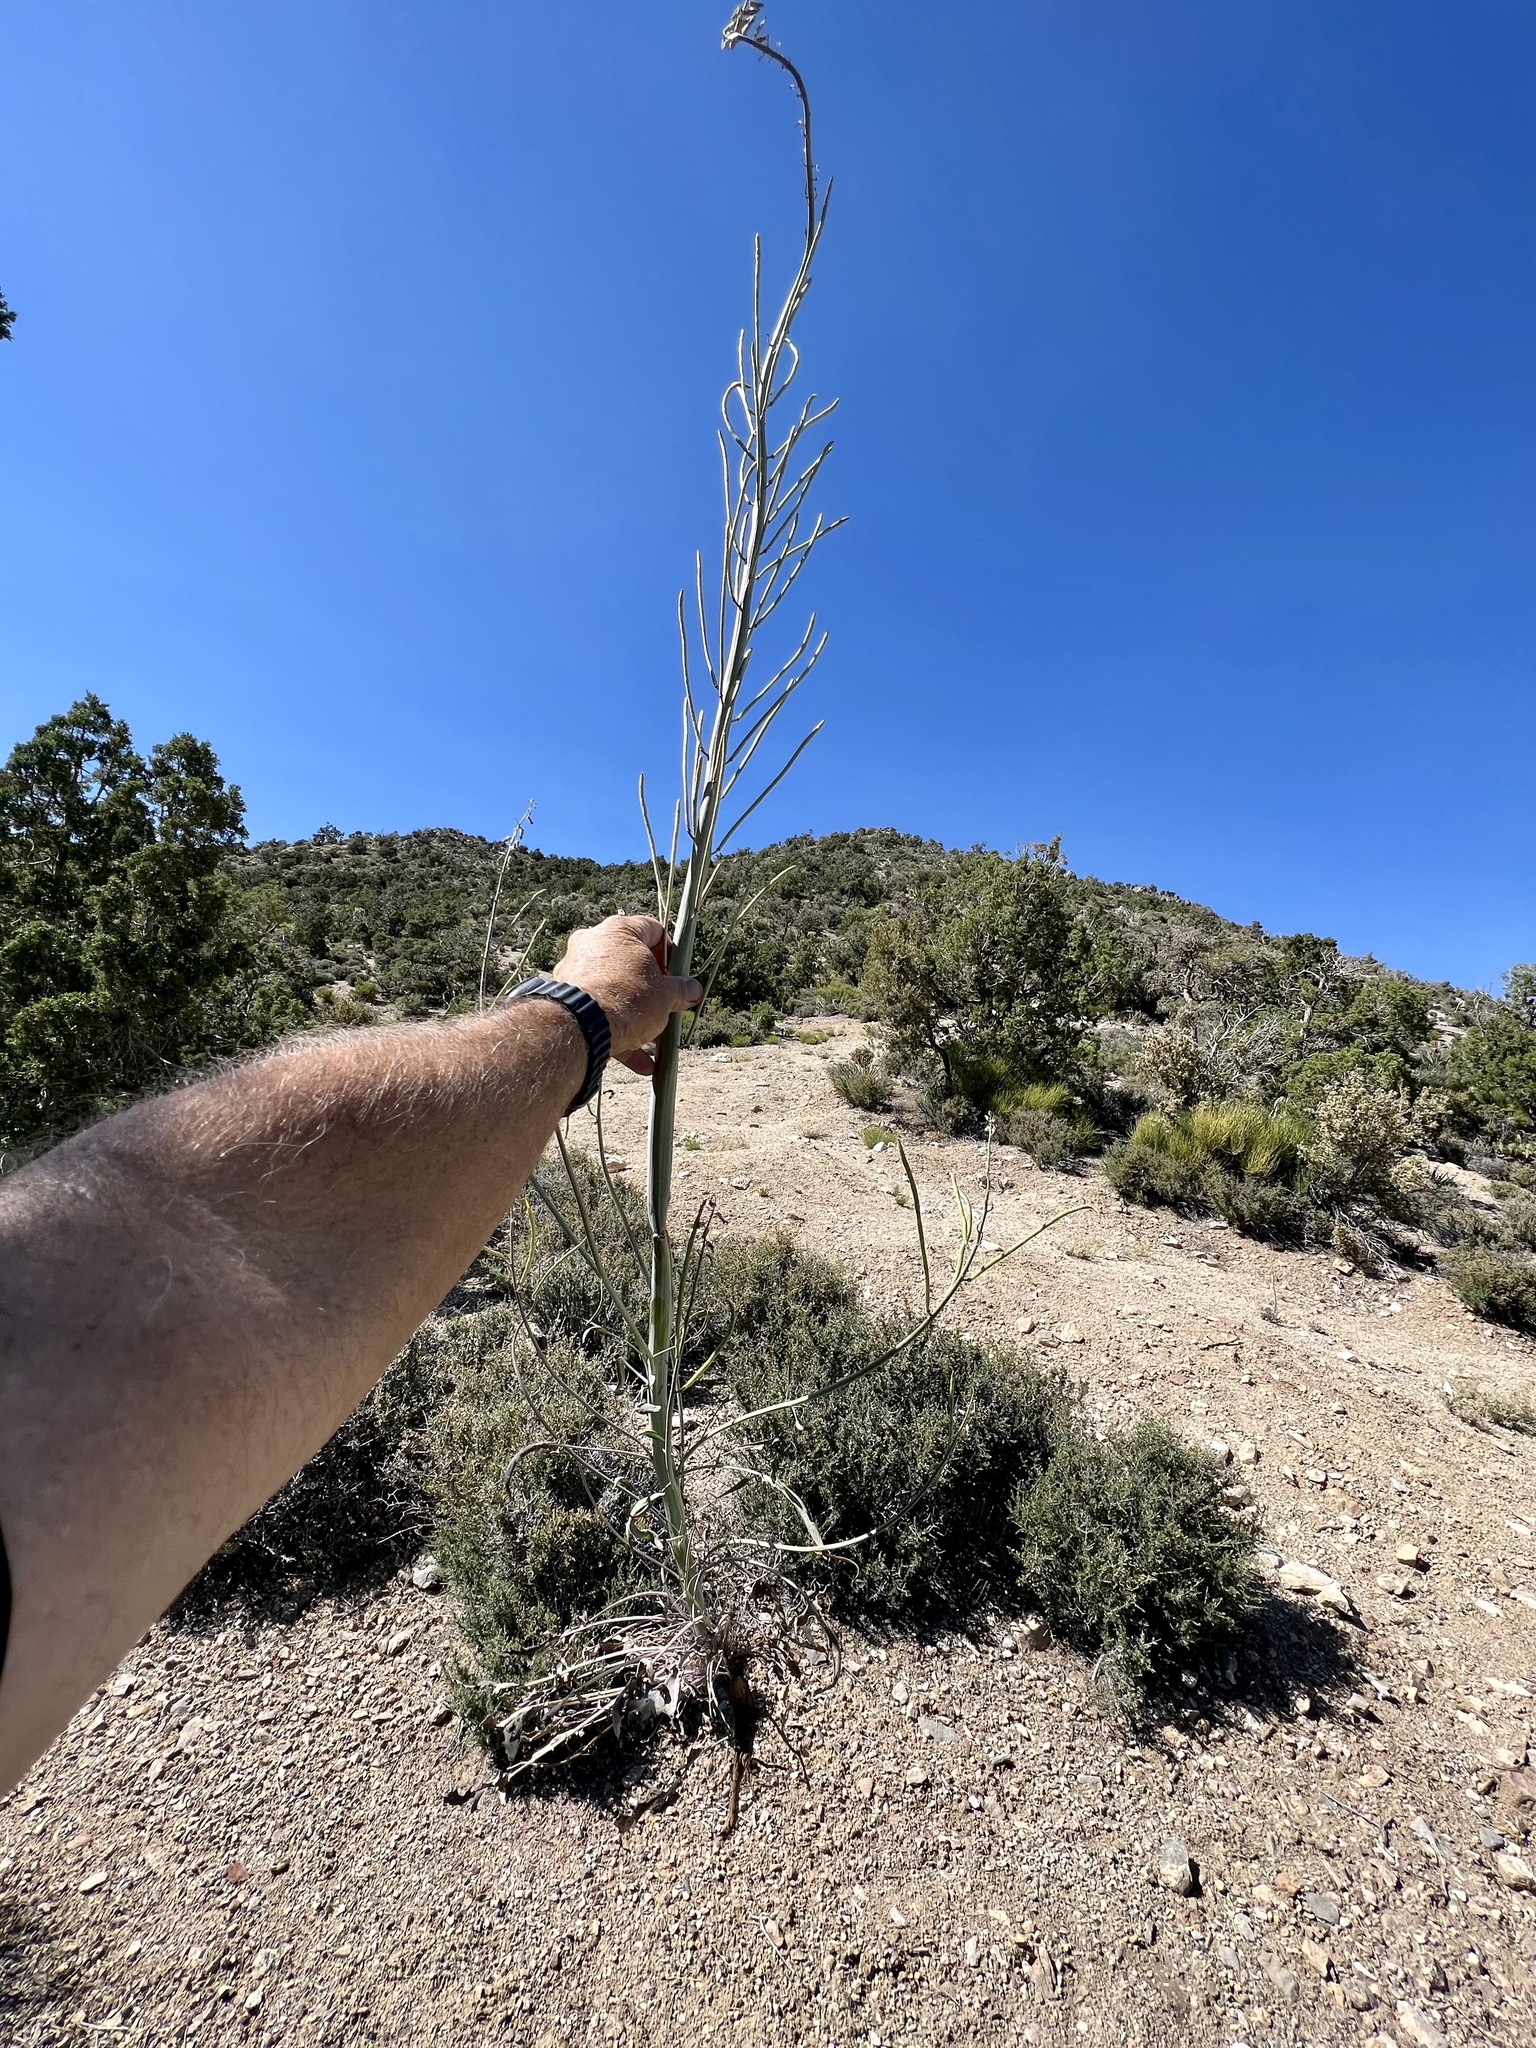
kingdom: Plantae
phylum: Tracheophyta
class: Magnoliopsida
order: Brassicales
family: Brassicaceae
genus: Streptanthus
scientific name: Streptanthus crassicaulis
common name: Thick-stem wild cabbage
